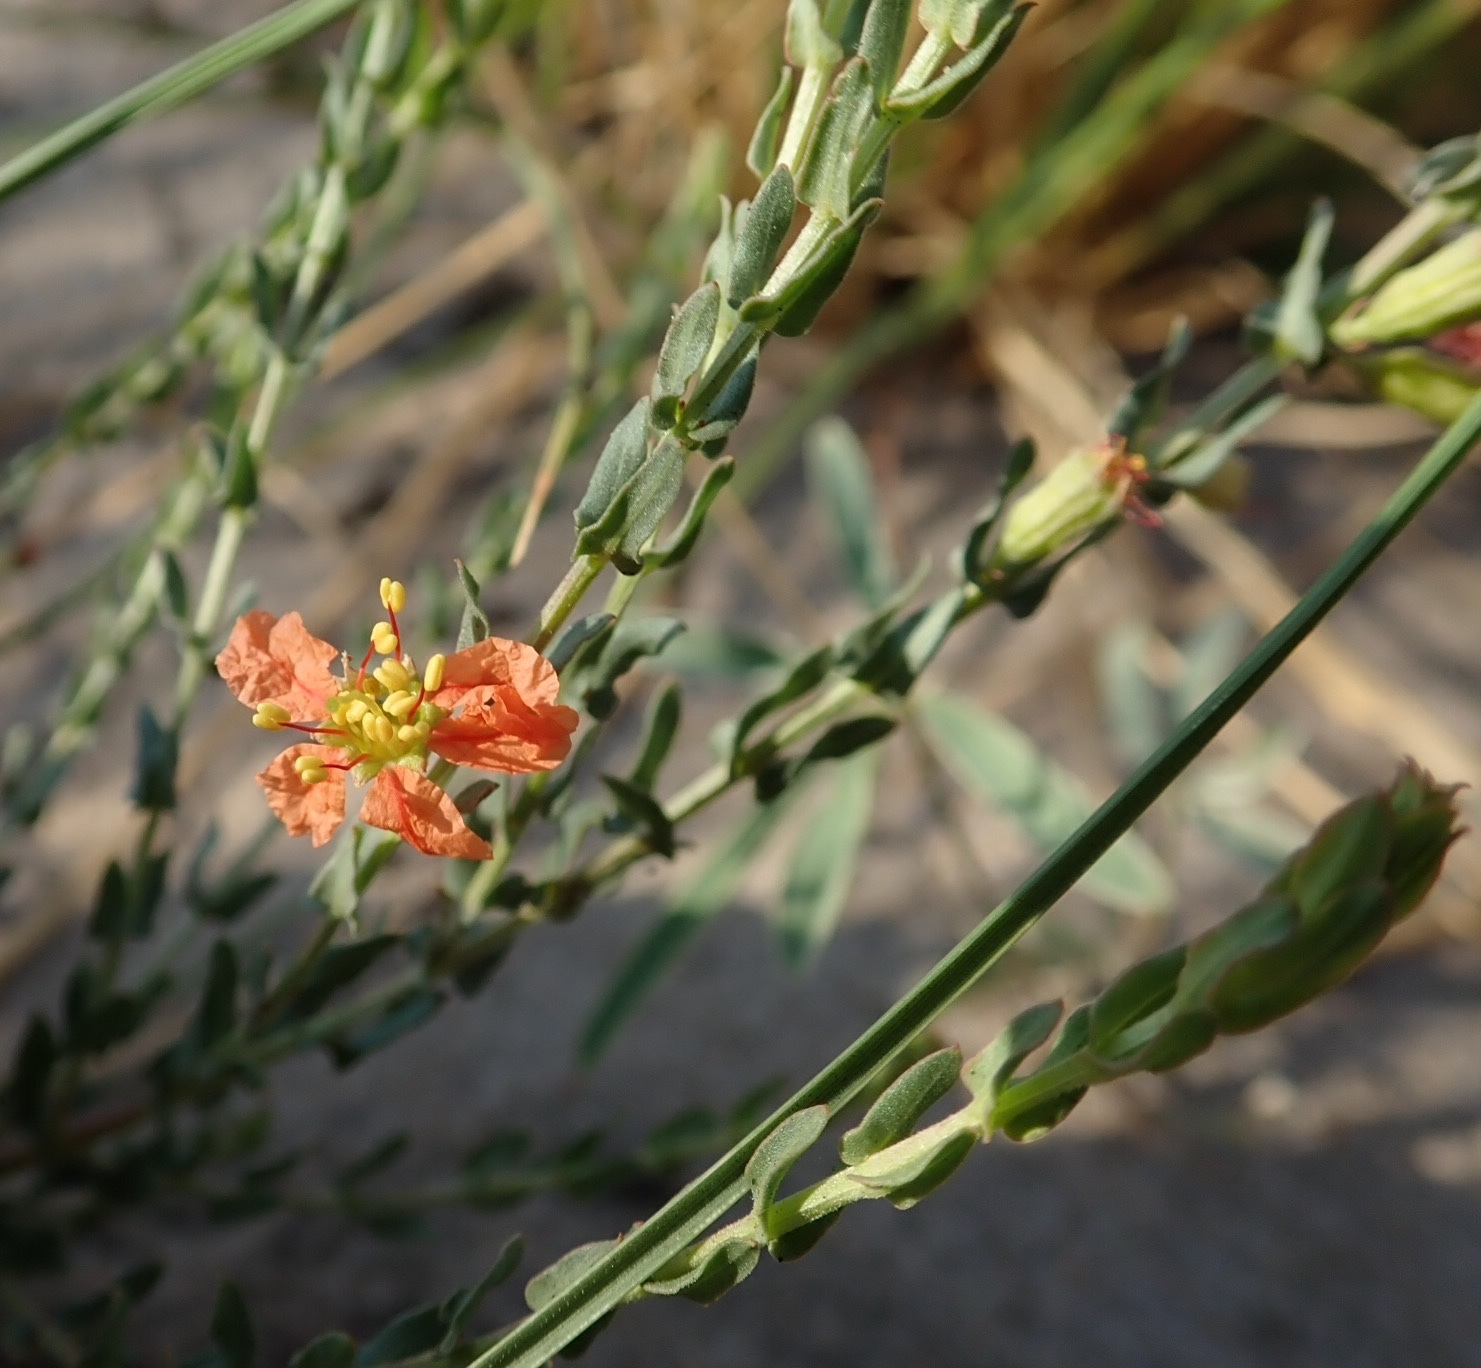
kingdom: Plantae
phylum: Tracheophyta
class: Magnoliopsida
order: Myrtales
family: Lythraceae
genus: Ammannia
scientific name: Ammannia rigidula
